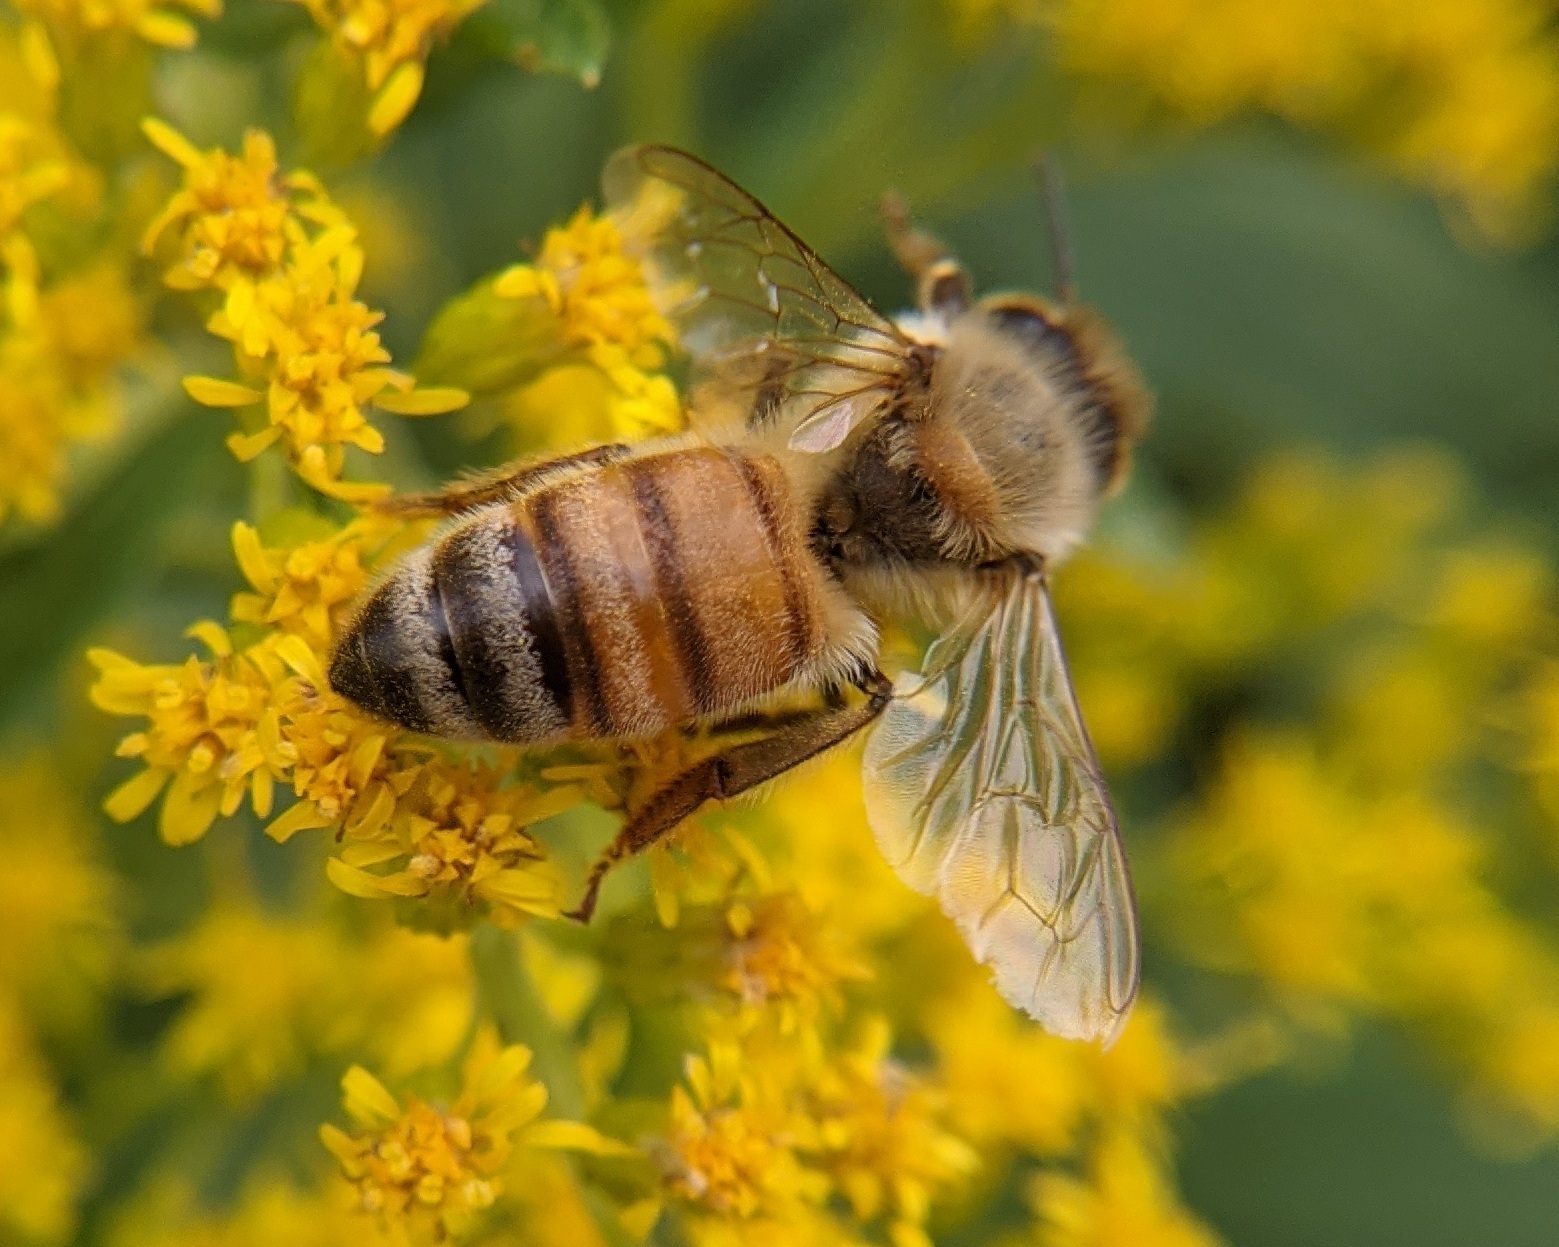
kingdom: Animalia
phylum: Arthropoda
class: Insecta
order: Hymenoptera
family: Apidae
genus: Apis
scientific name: Apis mellifera
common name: Honey bee
